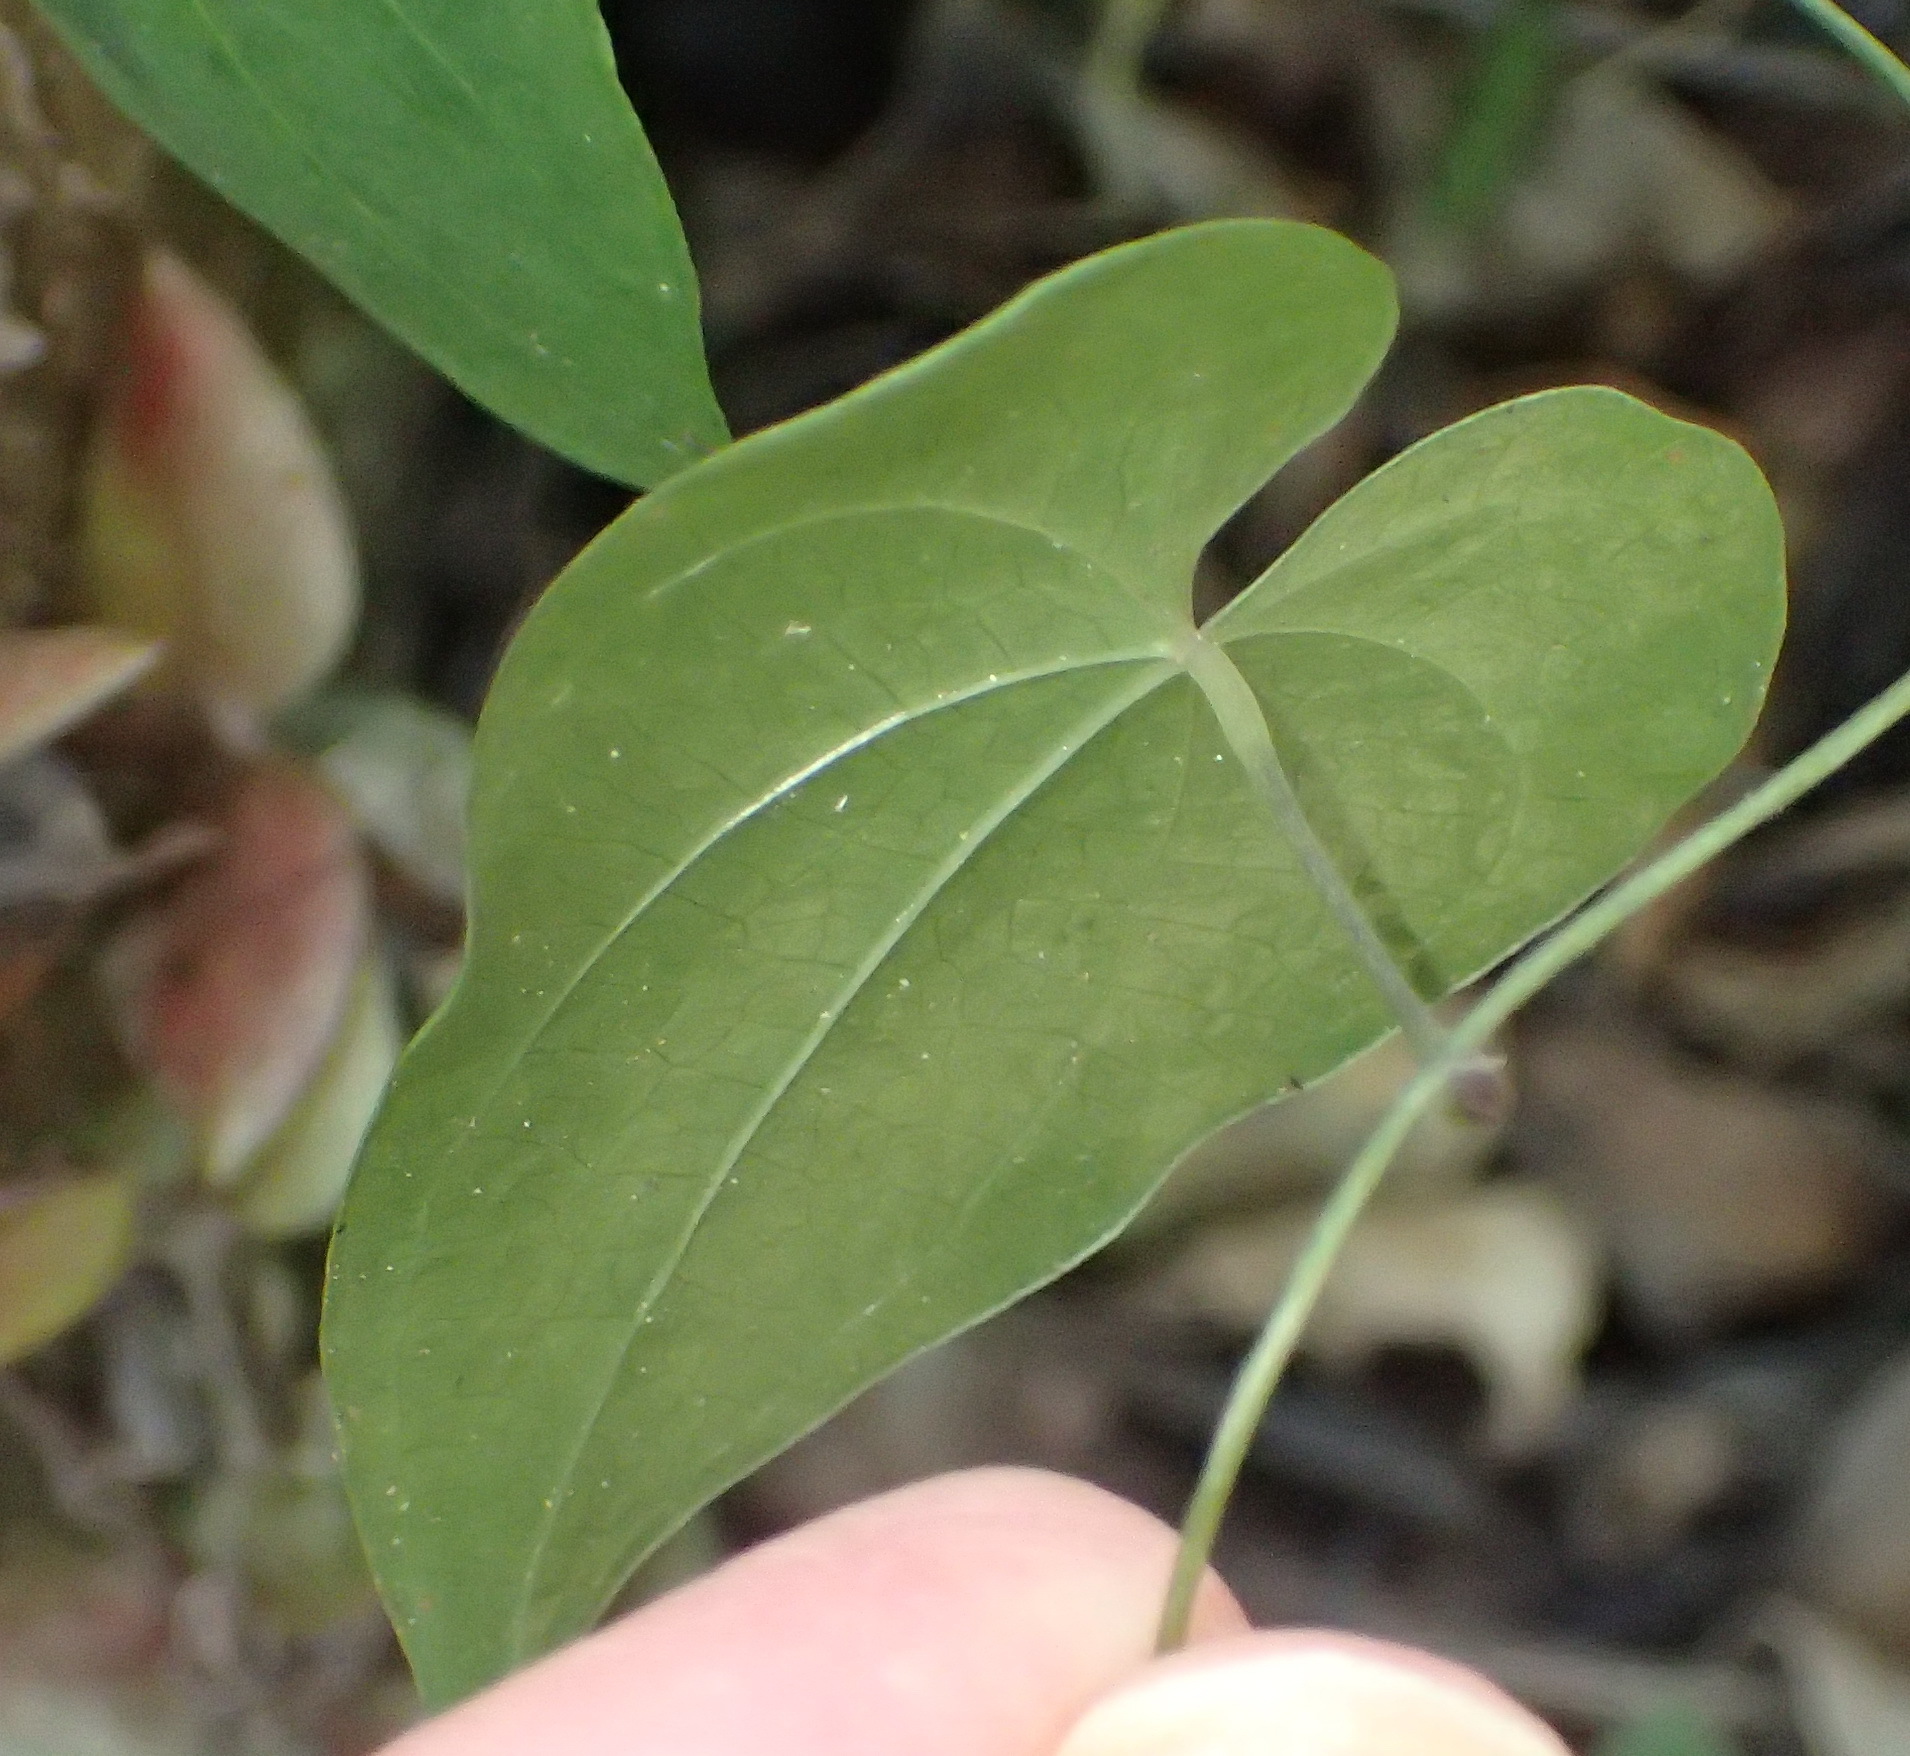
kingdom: Plantae
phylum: Tracheophyta
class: Liliopsida
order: Dioscoreales
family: Dioscoreaceae
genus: Dioscorea
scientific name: Dioscorea mundii
